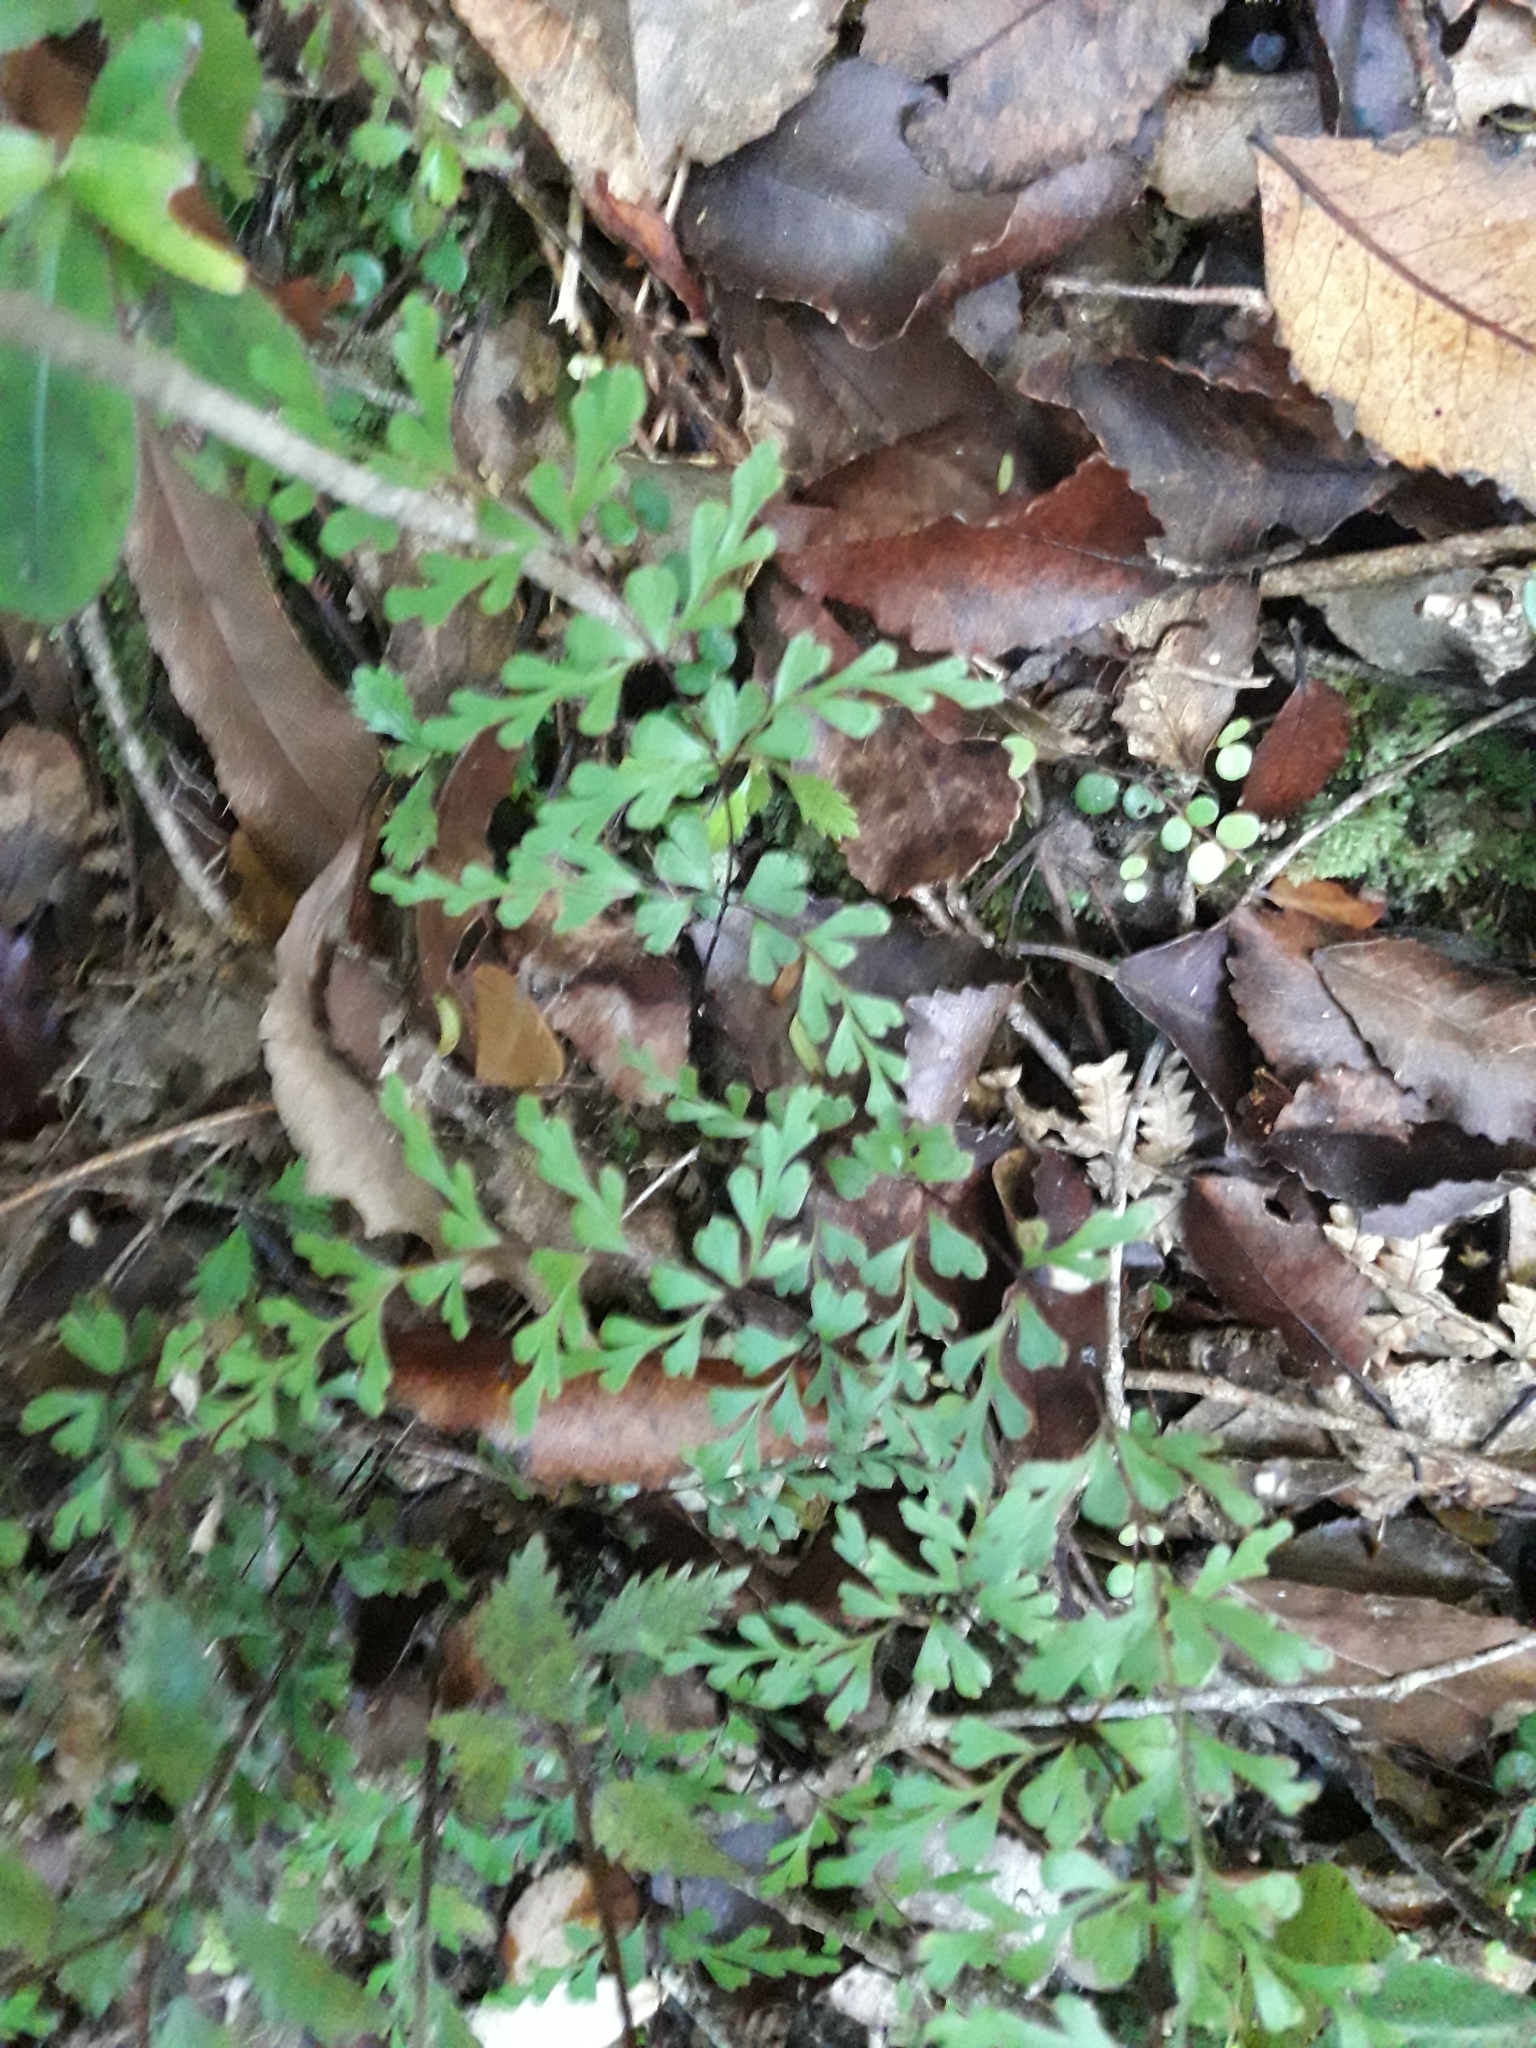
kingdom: Plantae
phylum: Tracheophyta
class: Polypodiopsida
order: Polypodiales
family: Lindsaeaceae
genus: Lindsaea
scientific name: Lindsaea trichomanoides
